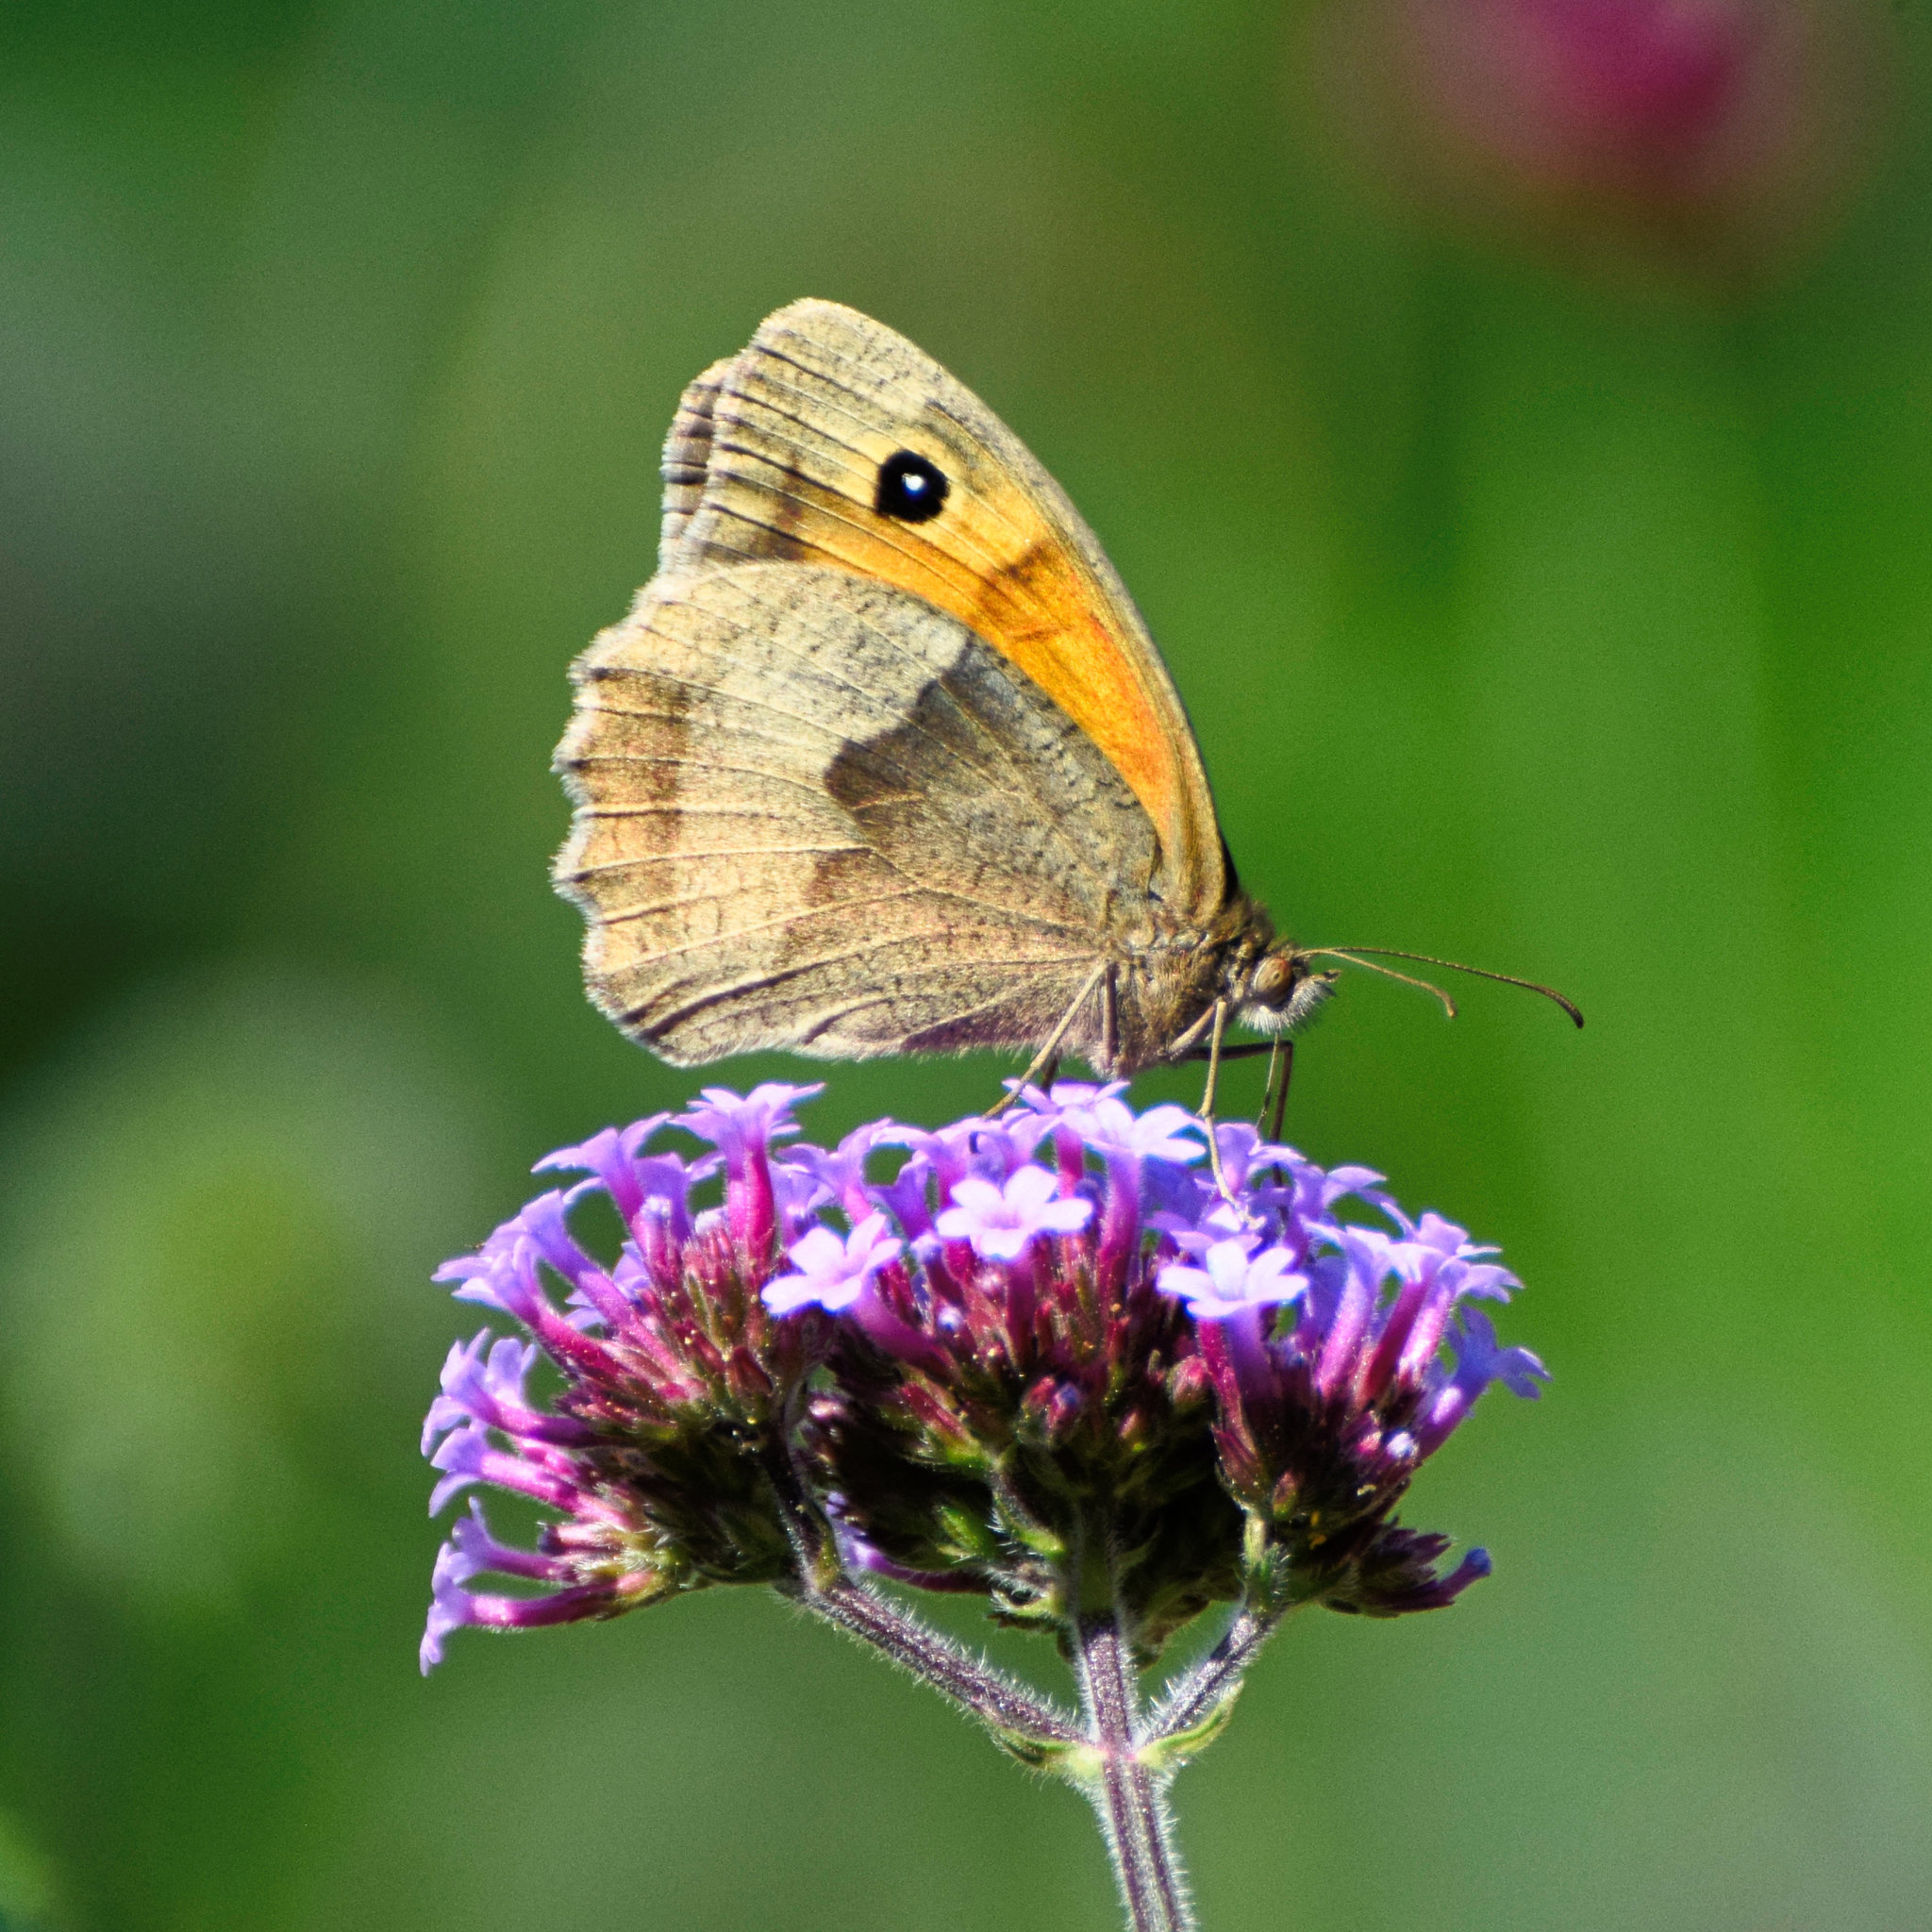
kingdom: Animalia
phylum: Arthropoda
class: Insecta
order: Lepidoptera
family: Nymphalidae
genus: Maniola
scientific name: Maniola jurtina
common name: Meadow brown
